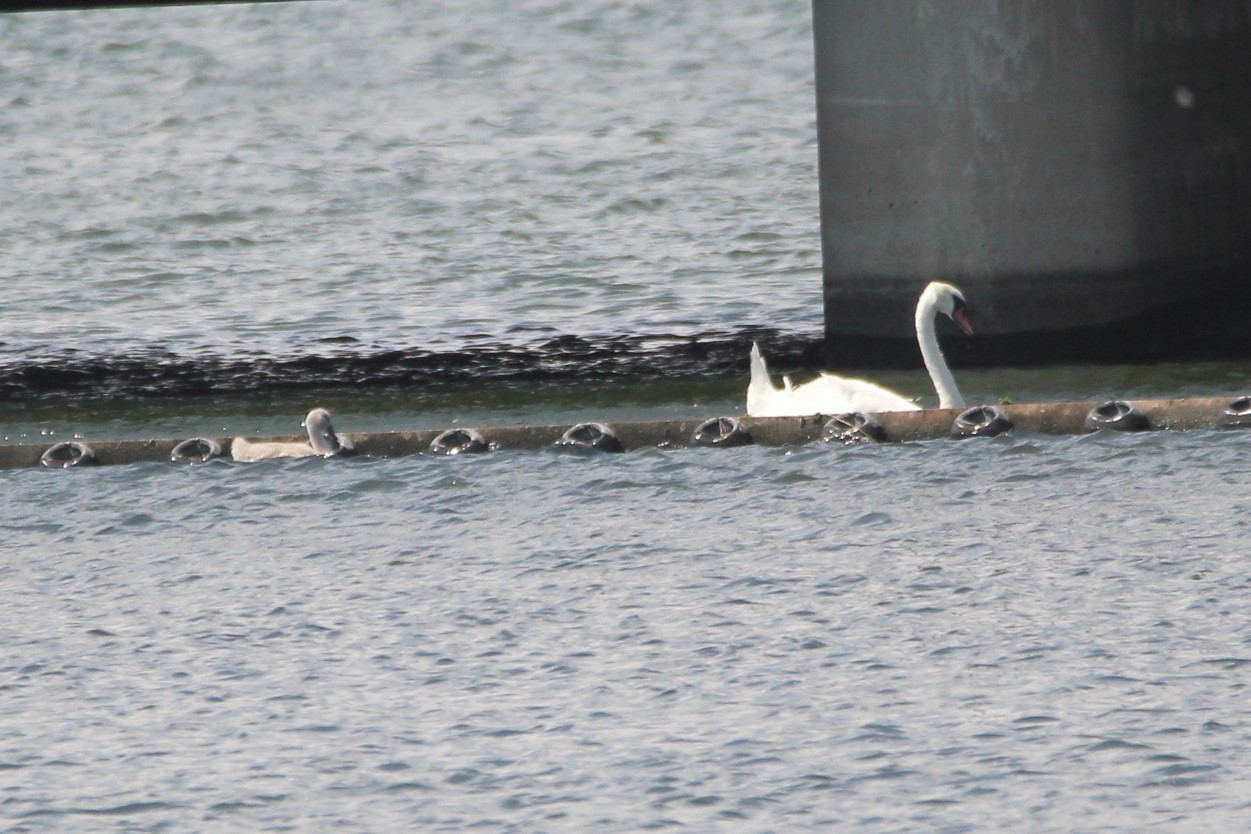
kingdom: Animalia
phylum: Chordata
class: Aves
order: Anseriformes
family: Anatidae
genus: Cygnus
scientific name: Cygnus olor
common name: Mute swan
